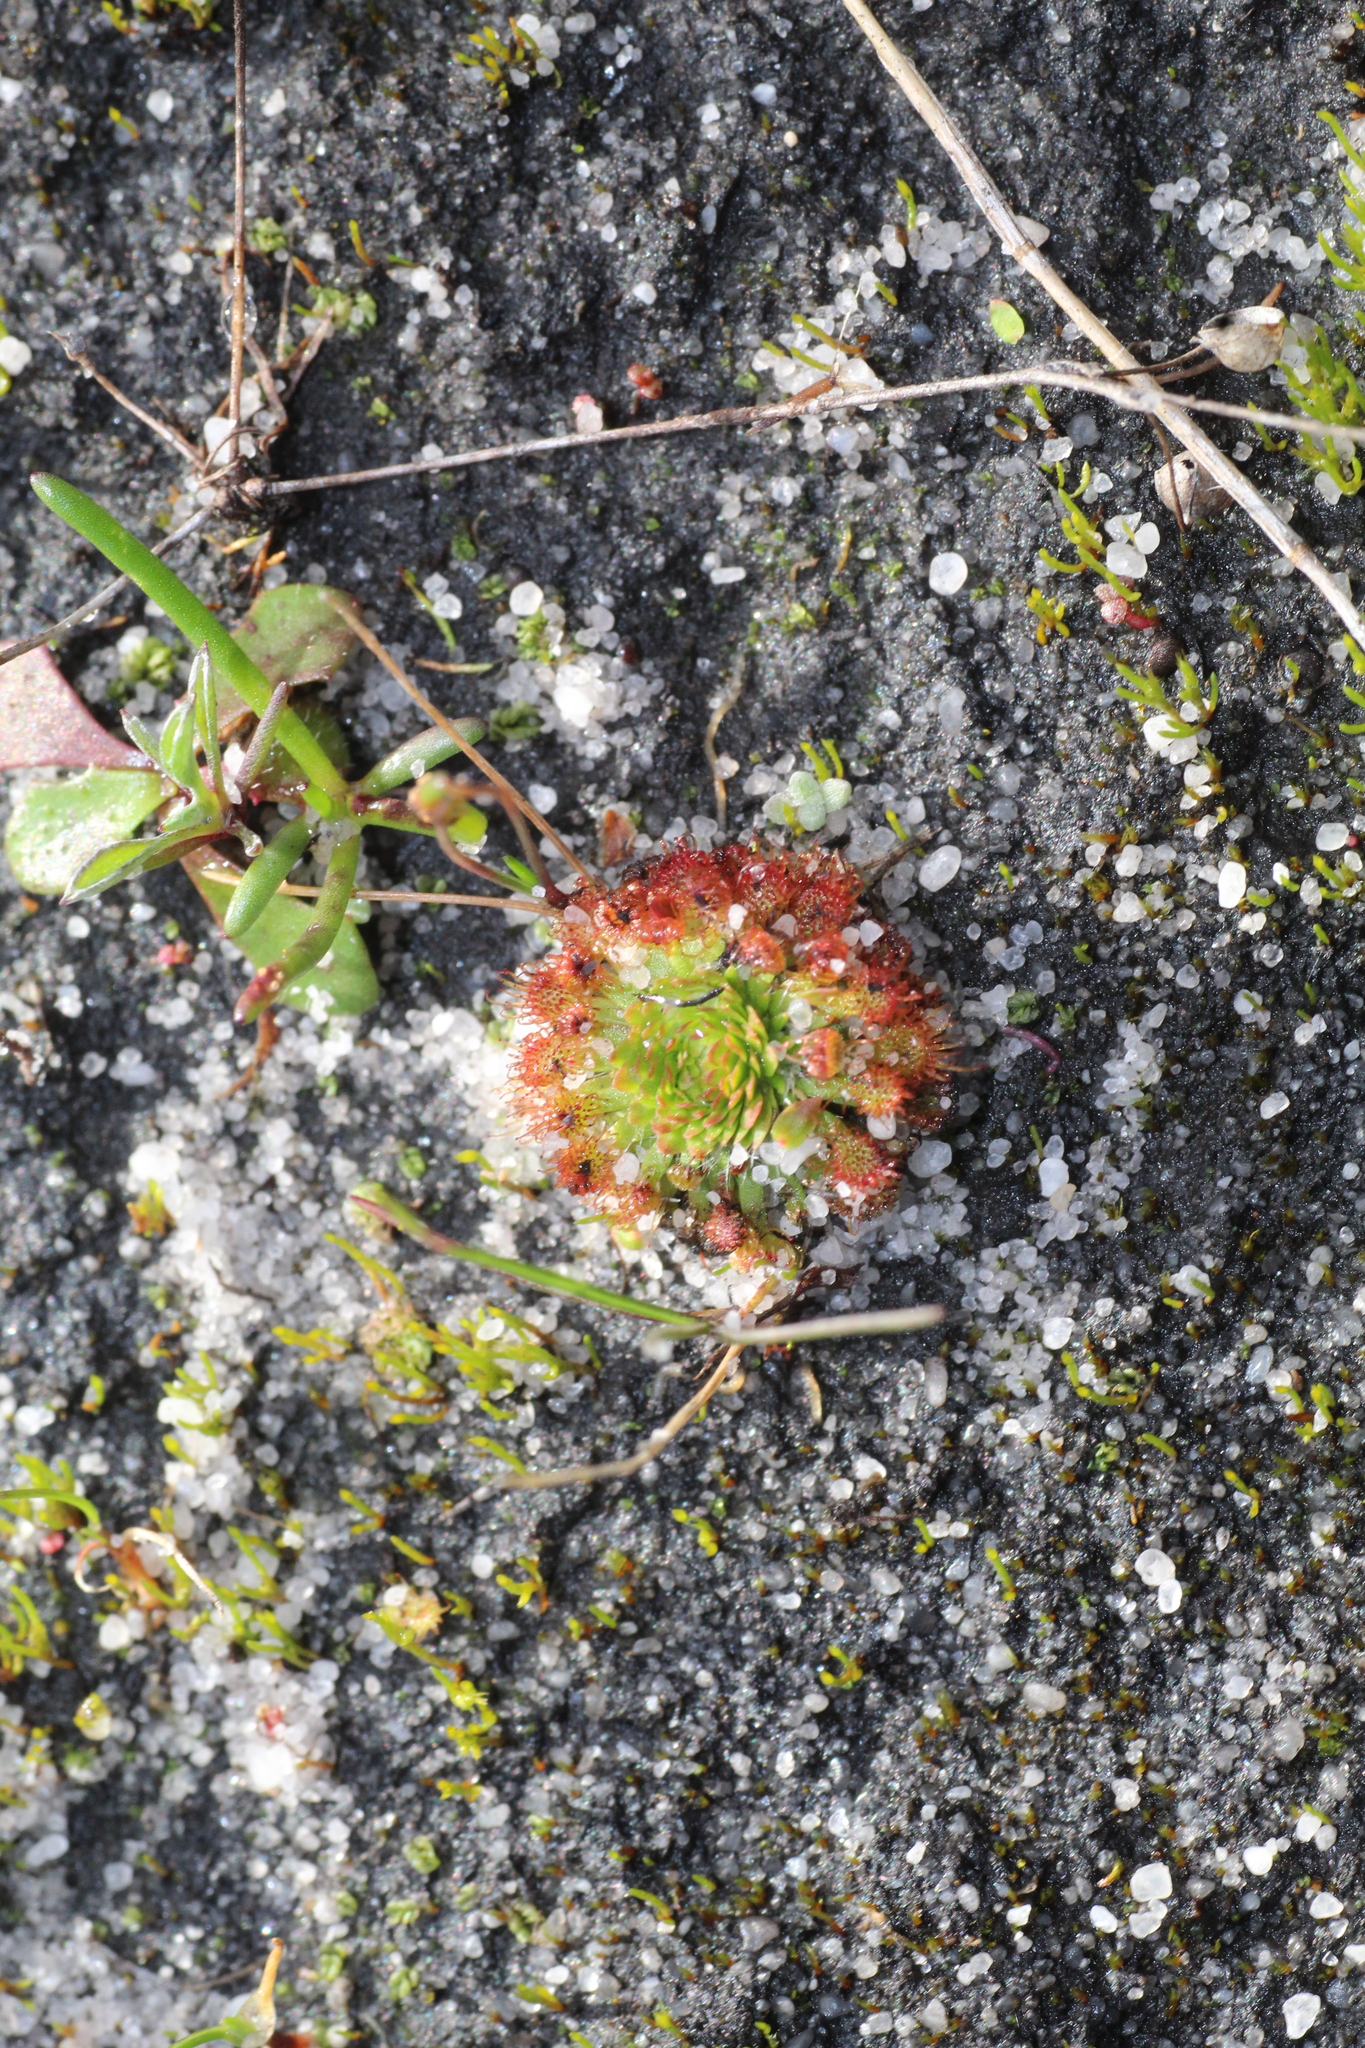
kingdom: Plantae
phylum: Tracheophyta
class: Magnoliopsida
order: Caryophyllales
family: Droseraceae
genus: Drosera
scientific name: Drosera nitidula
